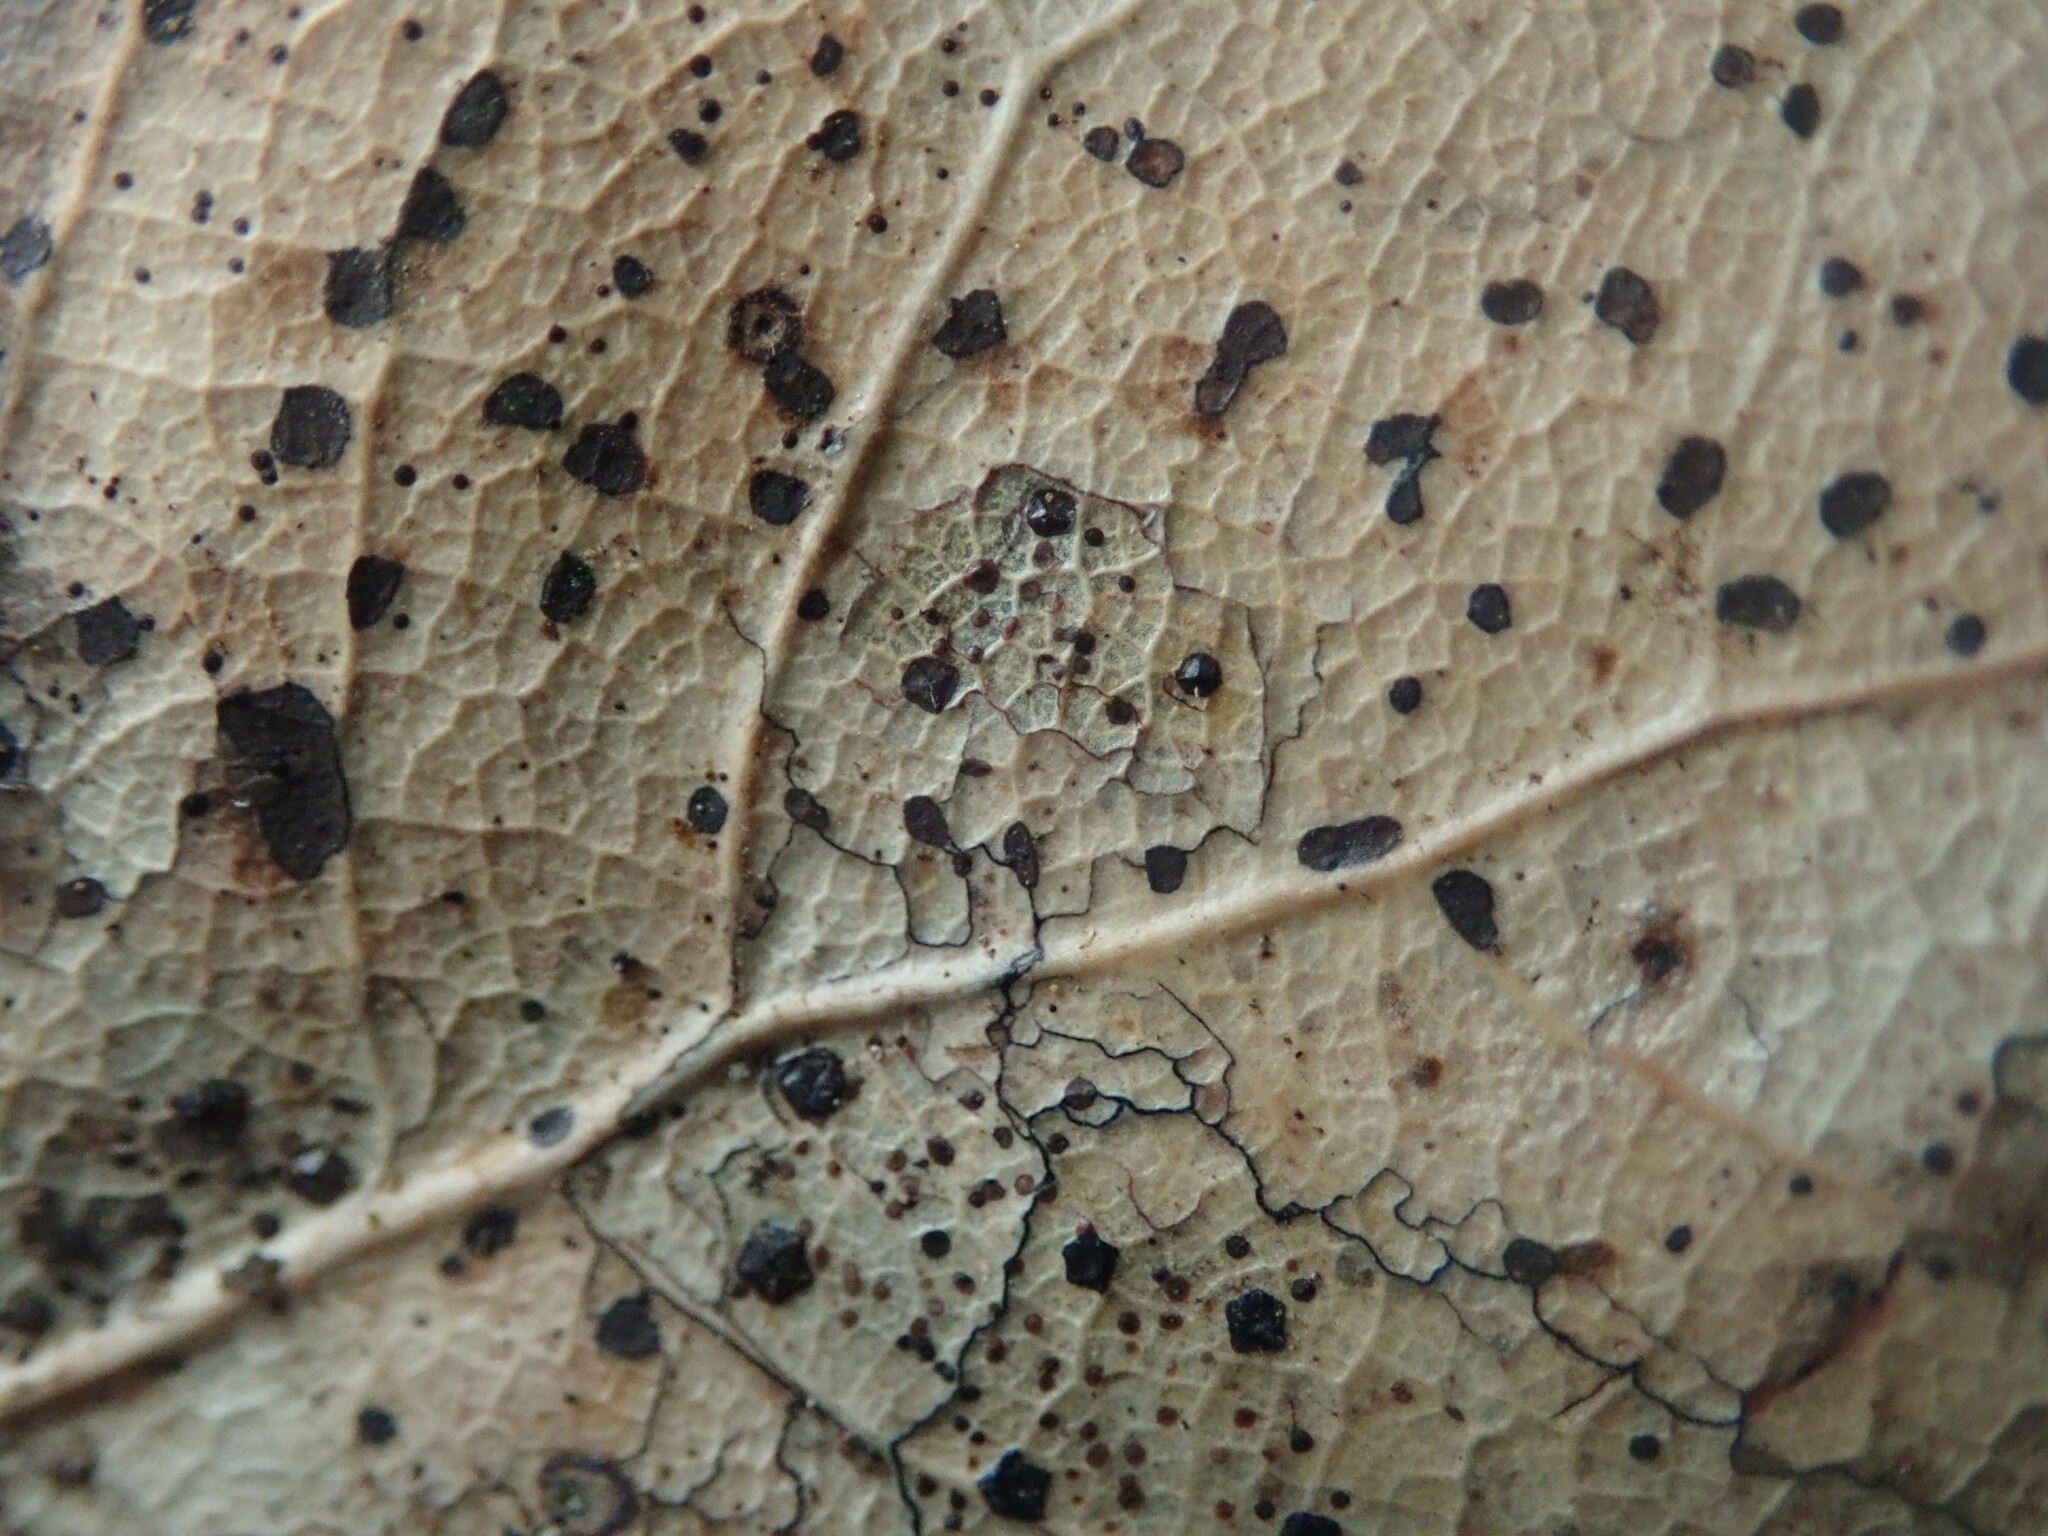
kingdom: Fungi
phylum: Ascomycota
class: Leotiomycetes
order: Rhytismatales
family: Rhytismataceae
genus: Coccomyces
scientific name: Coccomyces dentatus
